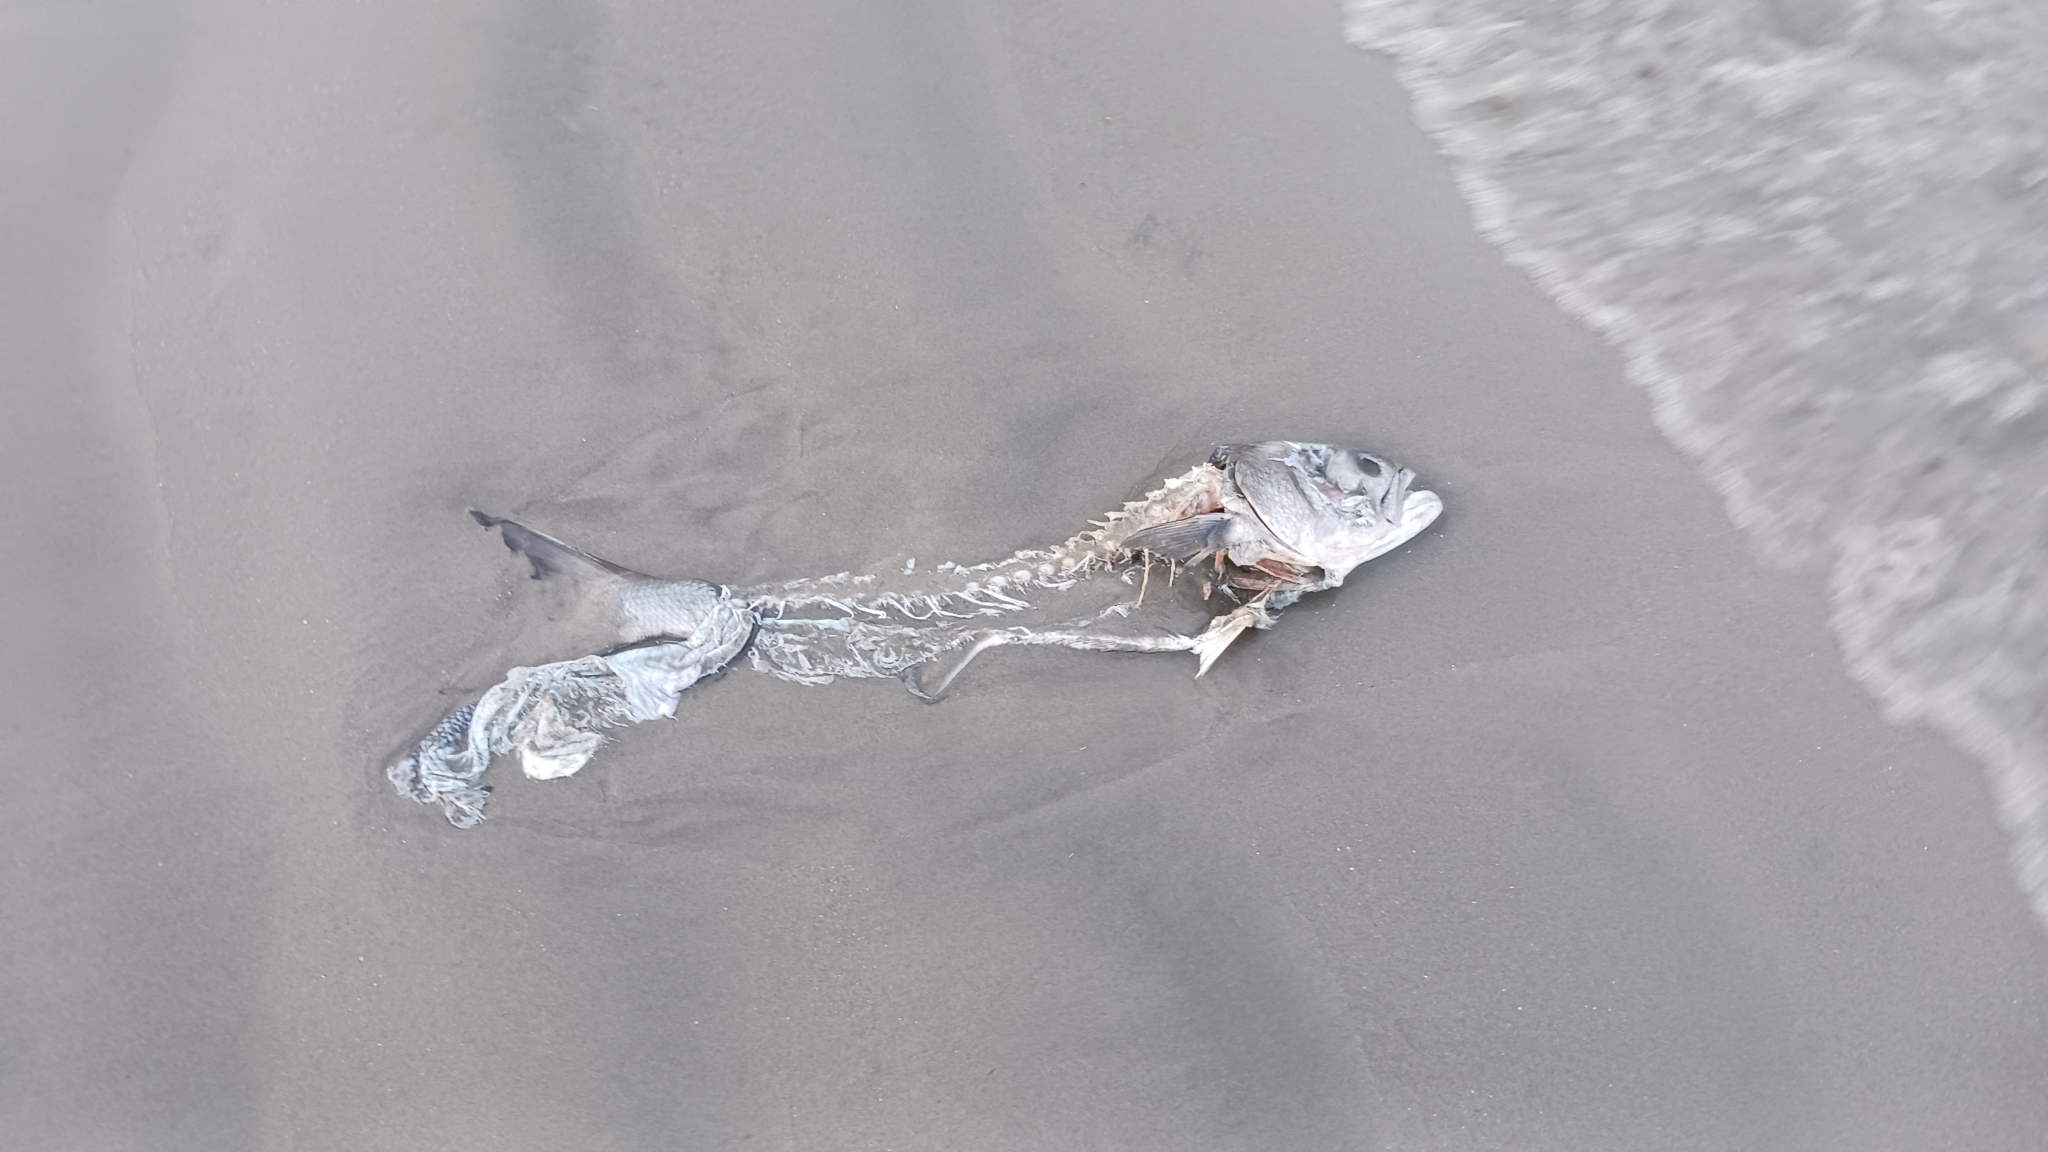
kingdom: Animalia
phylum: Chordata
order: Perciformes
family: Moronidae
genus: Morone
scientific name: Morone saxatilis
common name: Striped bass
